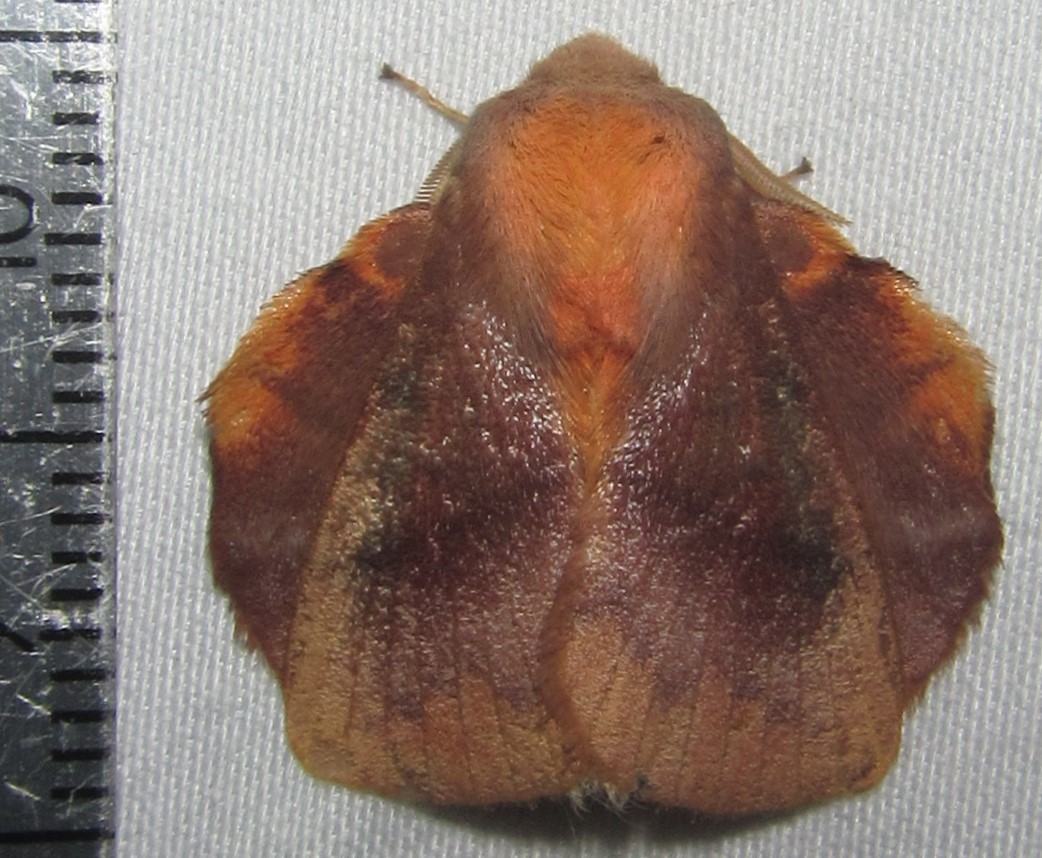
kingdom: Animalia
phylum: Arthropoda
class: Insecta
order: Lepidoptera
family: Lasiocampidae
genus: Trichopisthia
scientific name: Trichopisthia igneotincta
